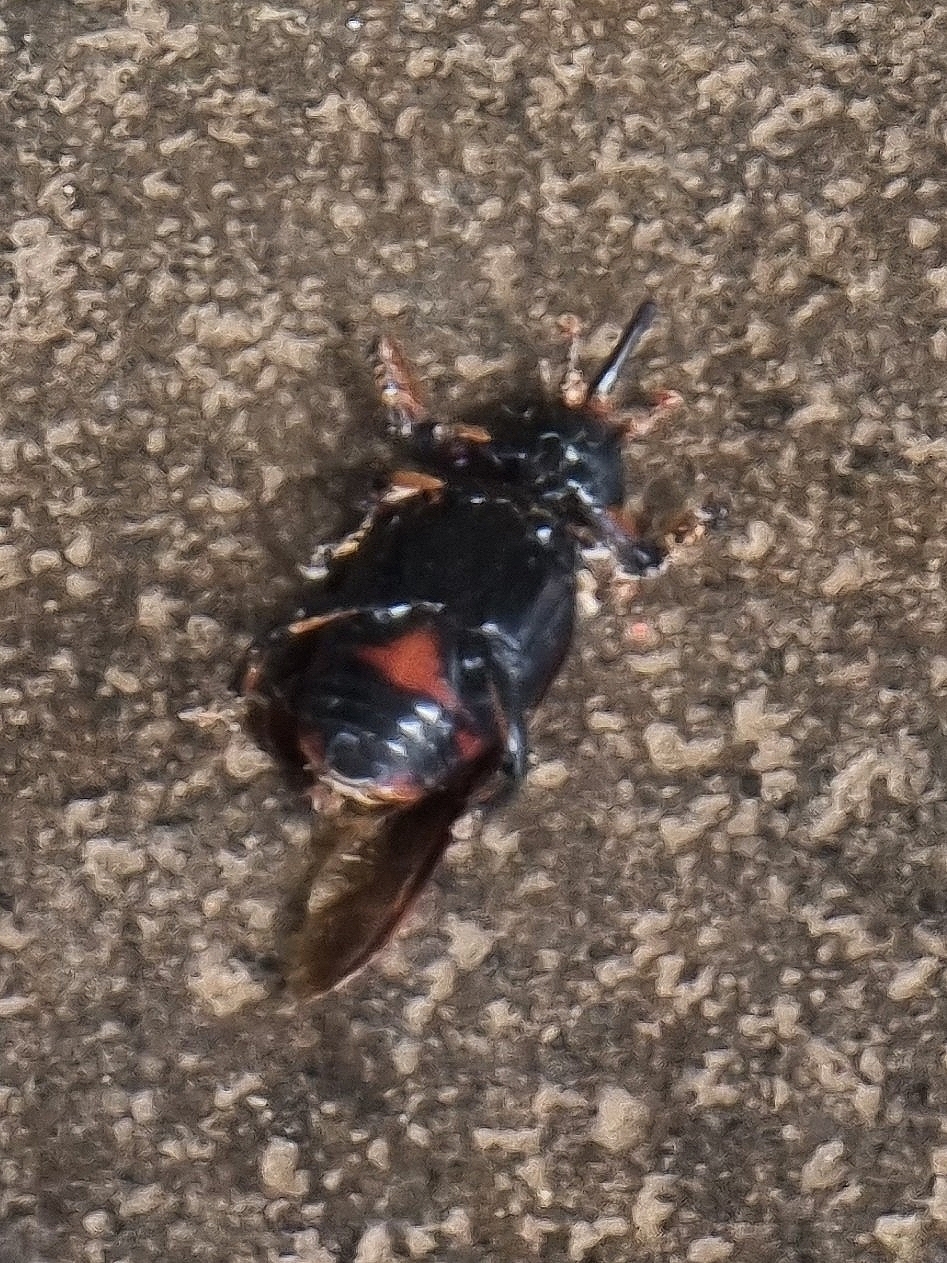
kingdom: Animalia
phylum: Arthropoda
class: Insecta
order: Coleoptera
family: Dryophthoridae
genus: Rhynchophorus
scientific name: Rhynchophorus ferrugineus
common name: Red palm weevil
